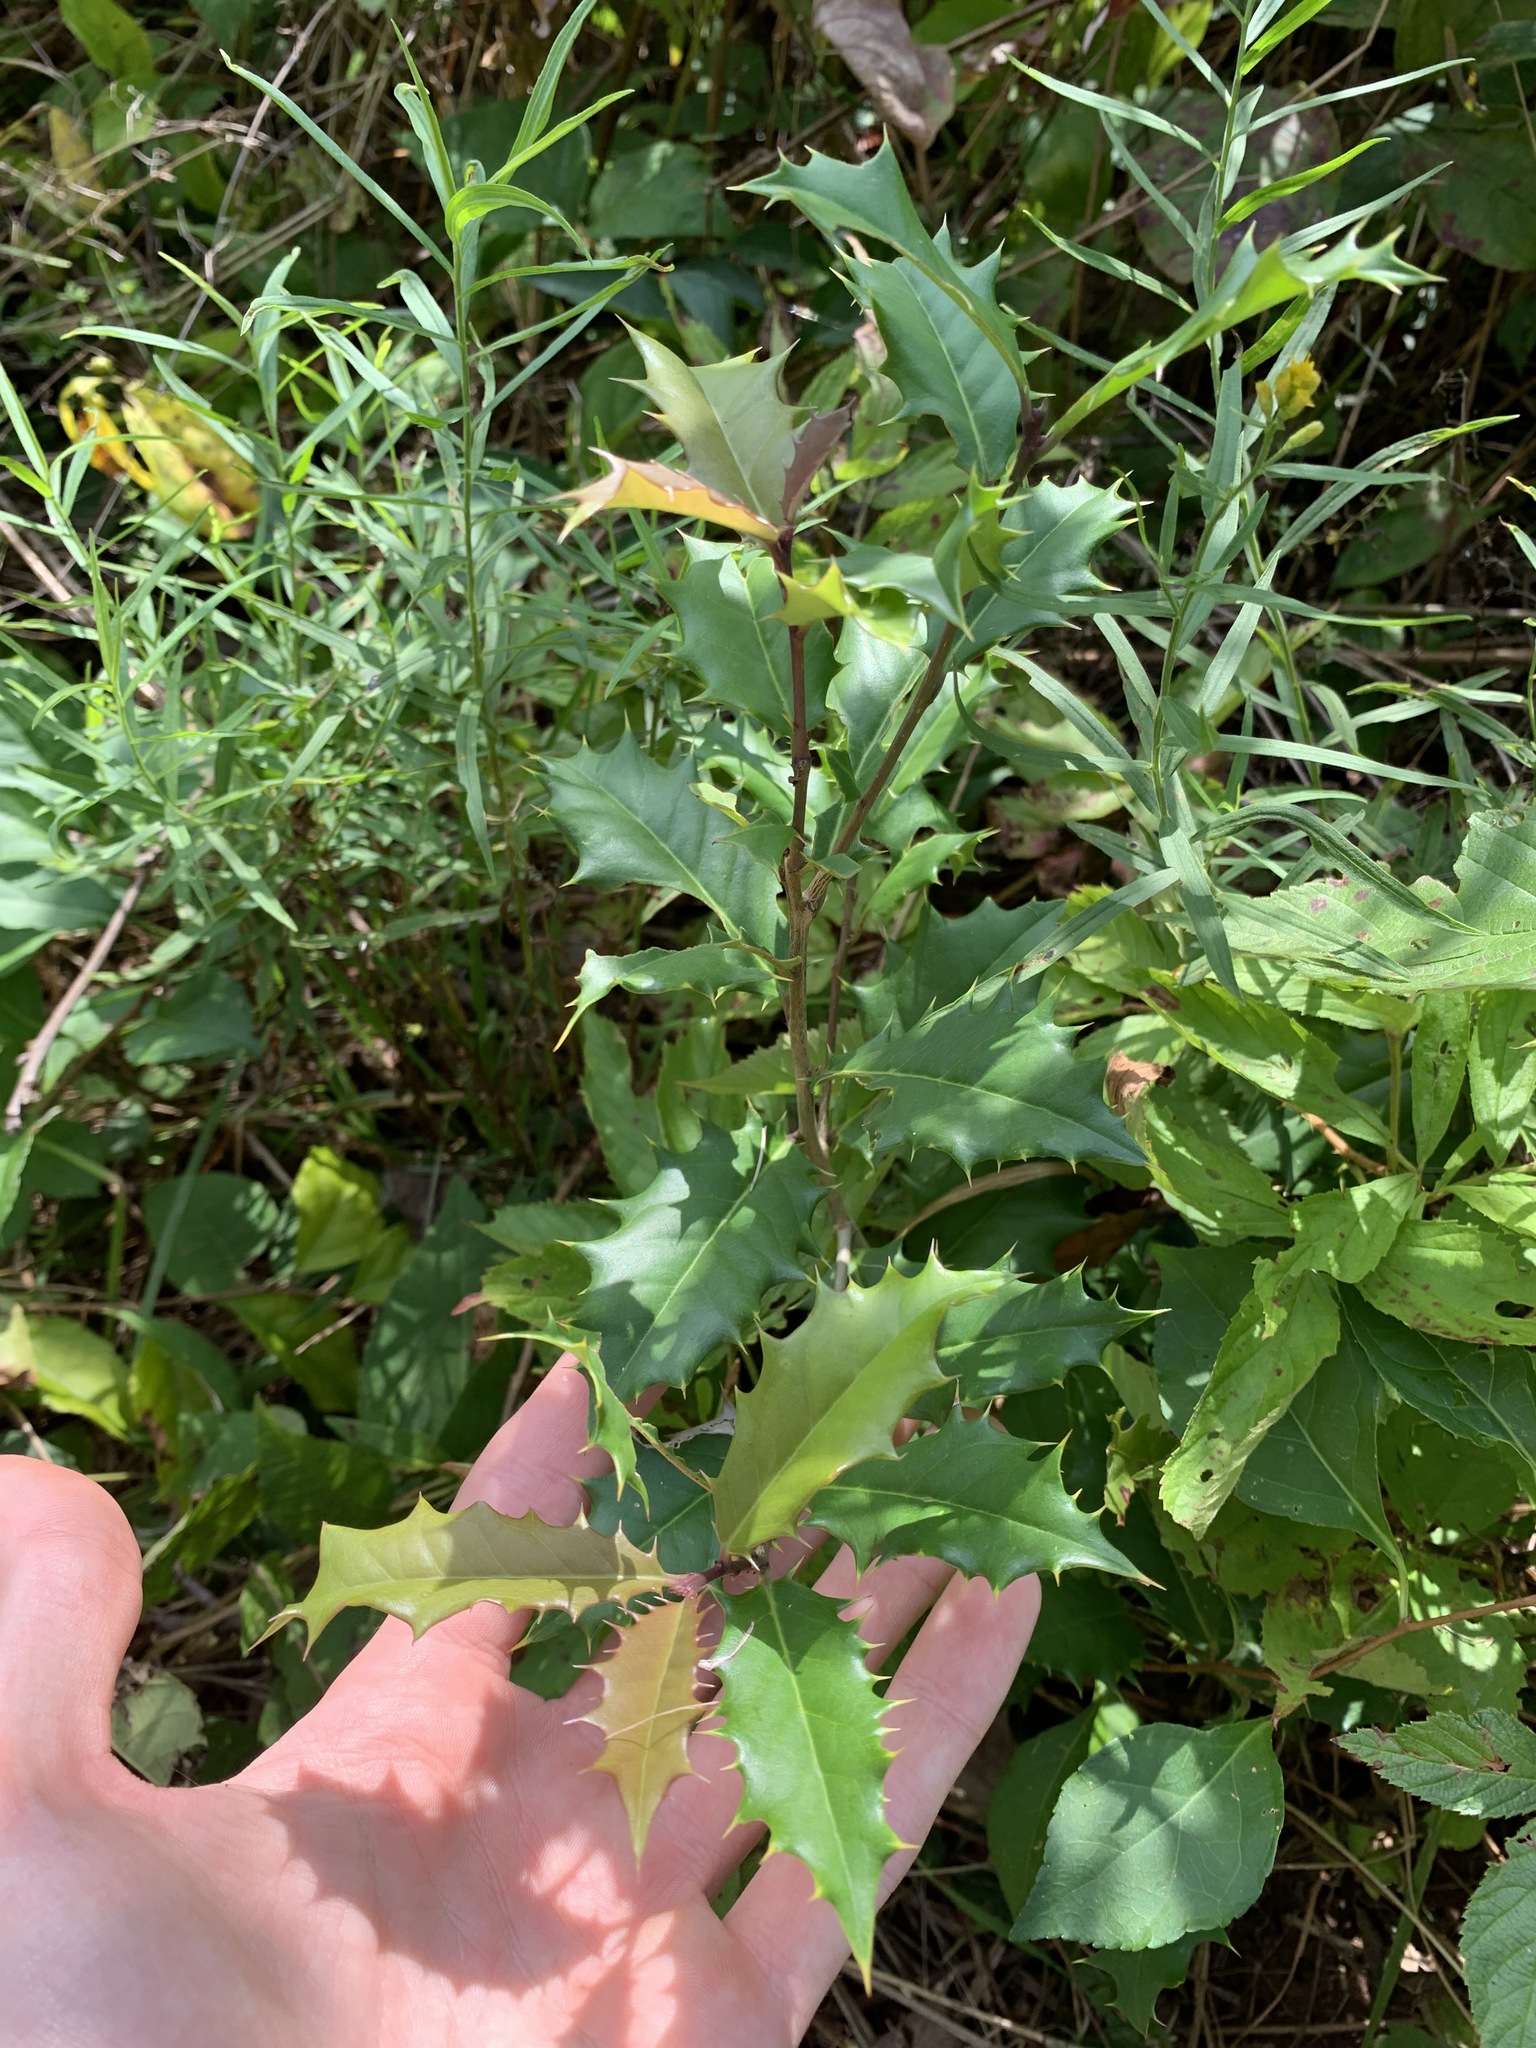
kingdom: Plantae
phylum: Tracheophyta
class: Magnoliopsida
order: Aquifoliales
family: Aquifoliaceae
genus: Ilex
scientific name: Ilex opaca
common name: American holly
